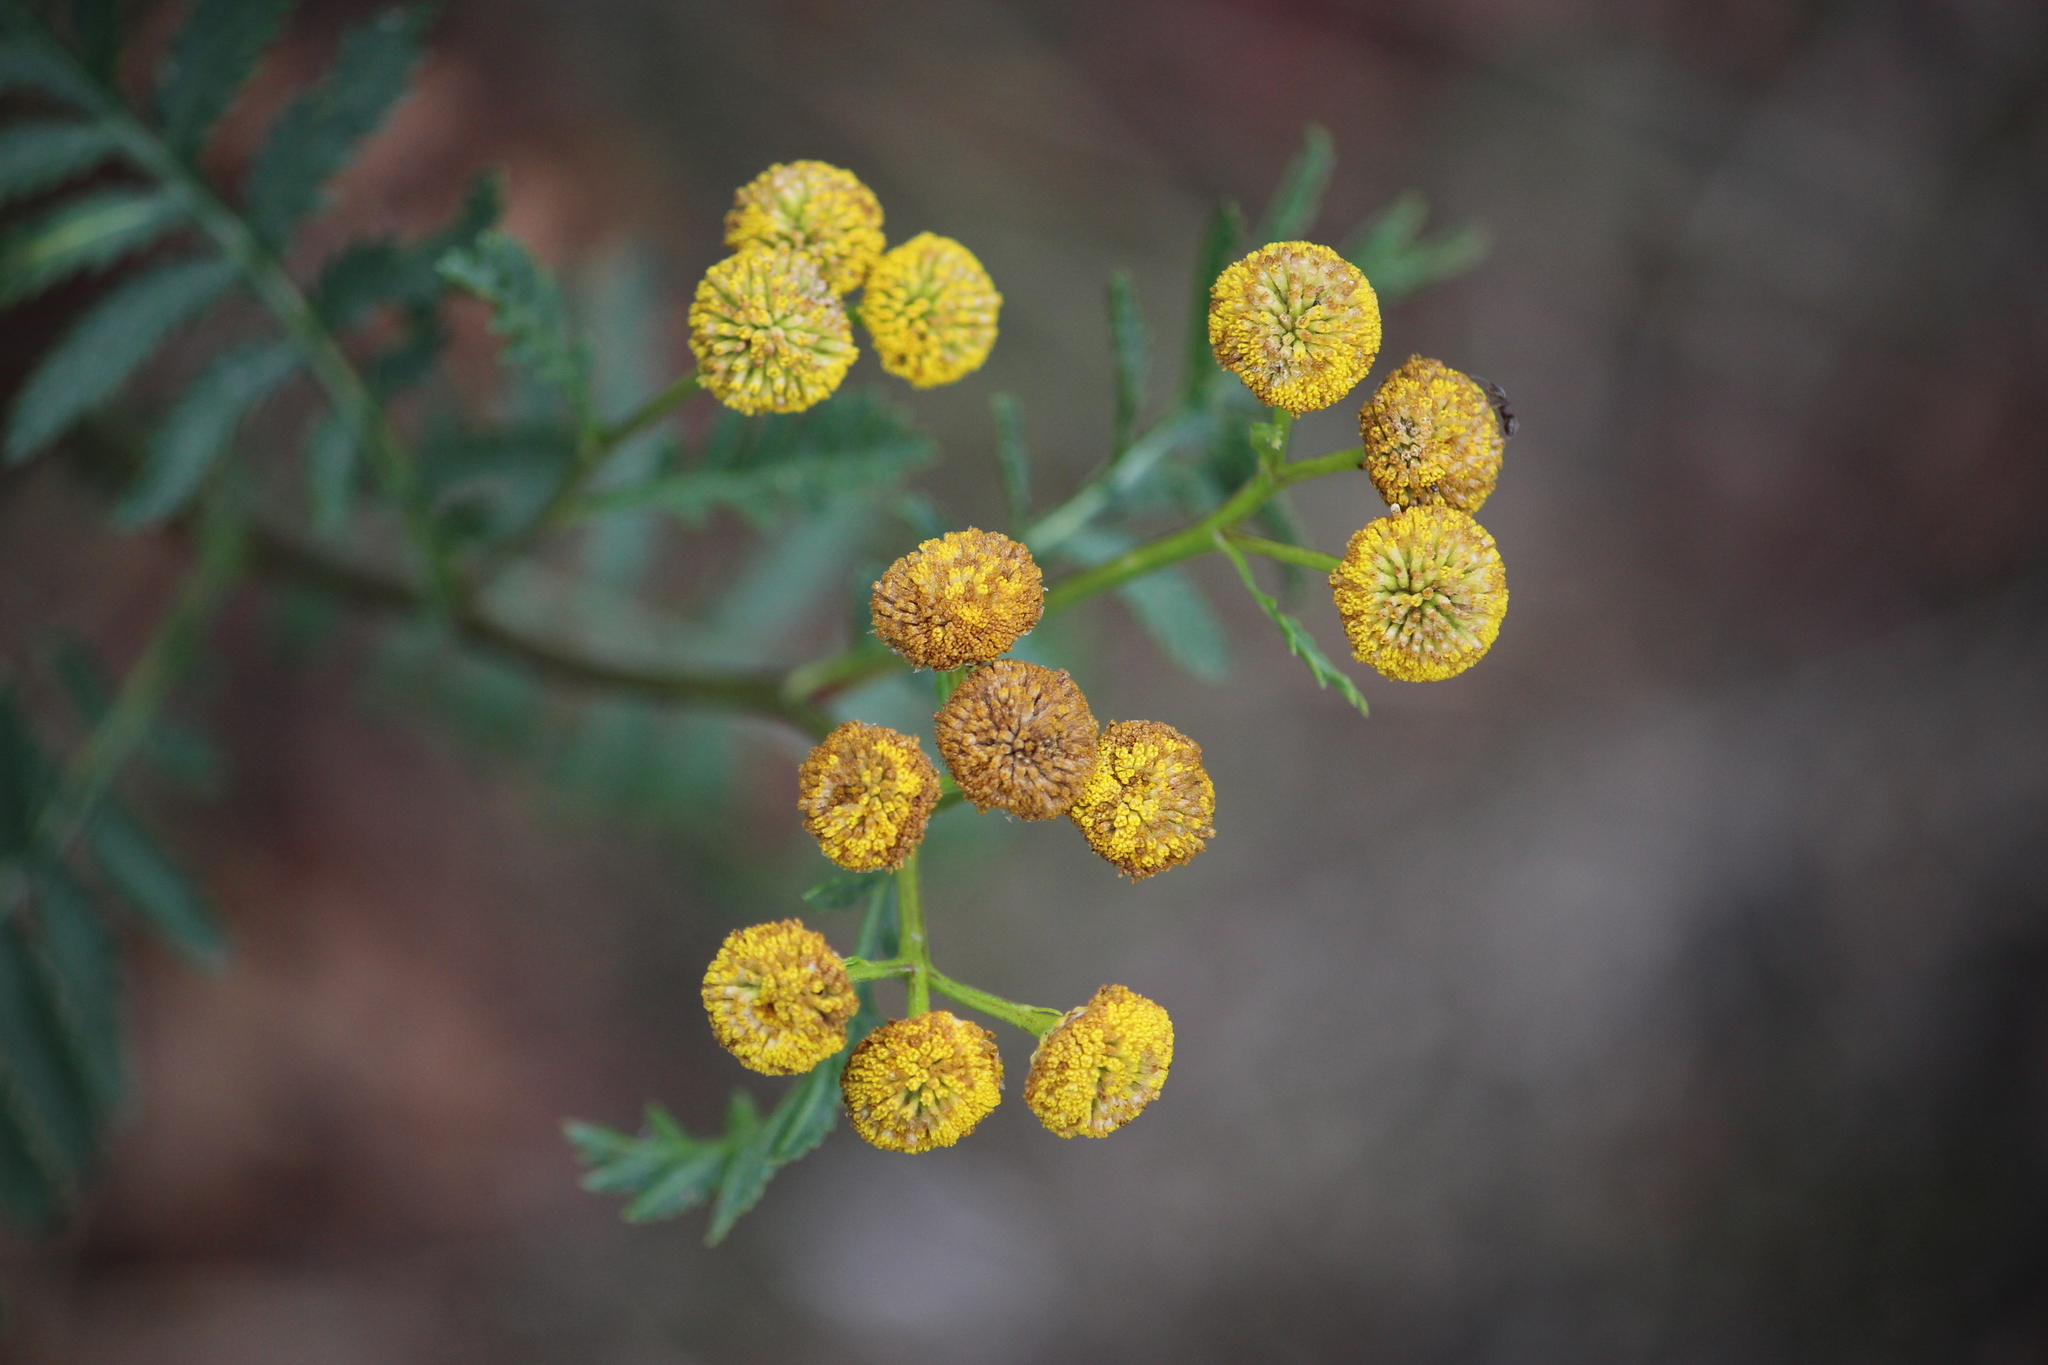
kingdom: Plantae
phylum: Tracheophyta
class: Magnoliopsida
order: Asterales
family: Asteraceae
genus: Tanacetum
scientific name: Tanacetum vulgare
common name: Common tansy
